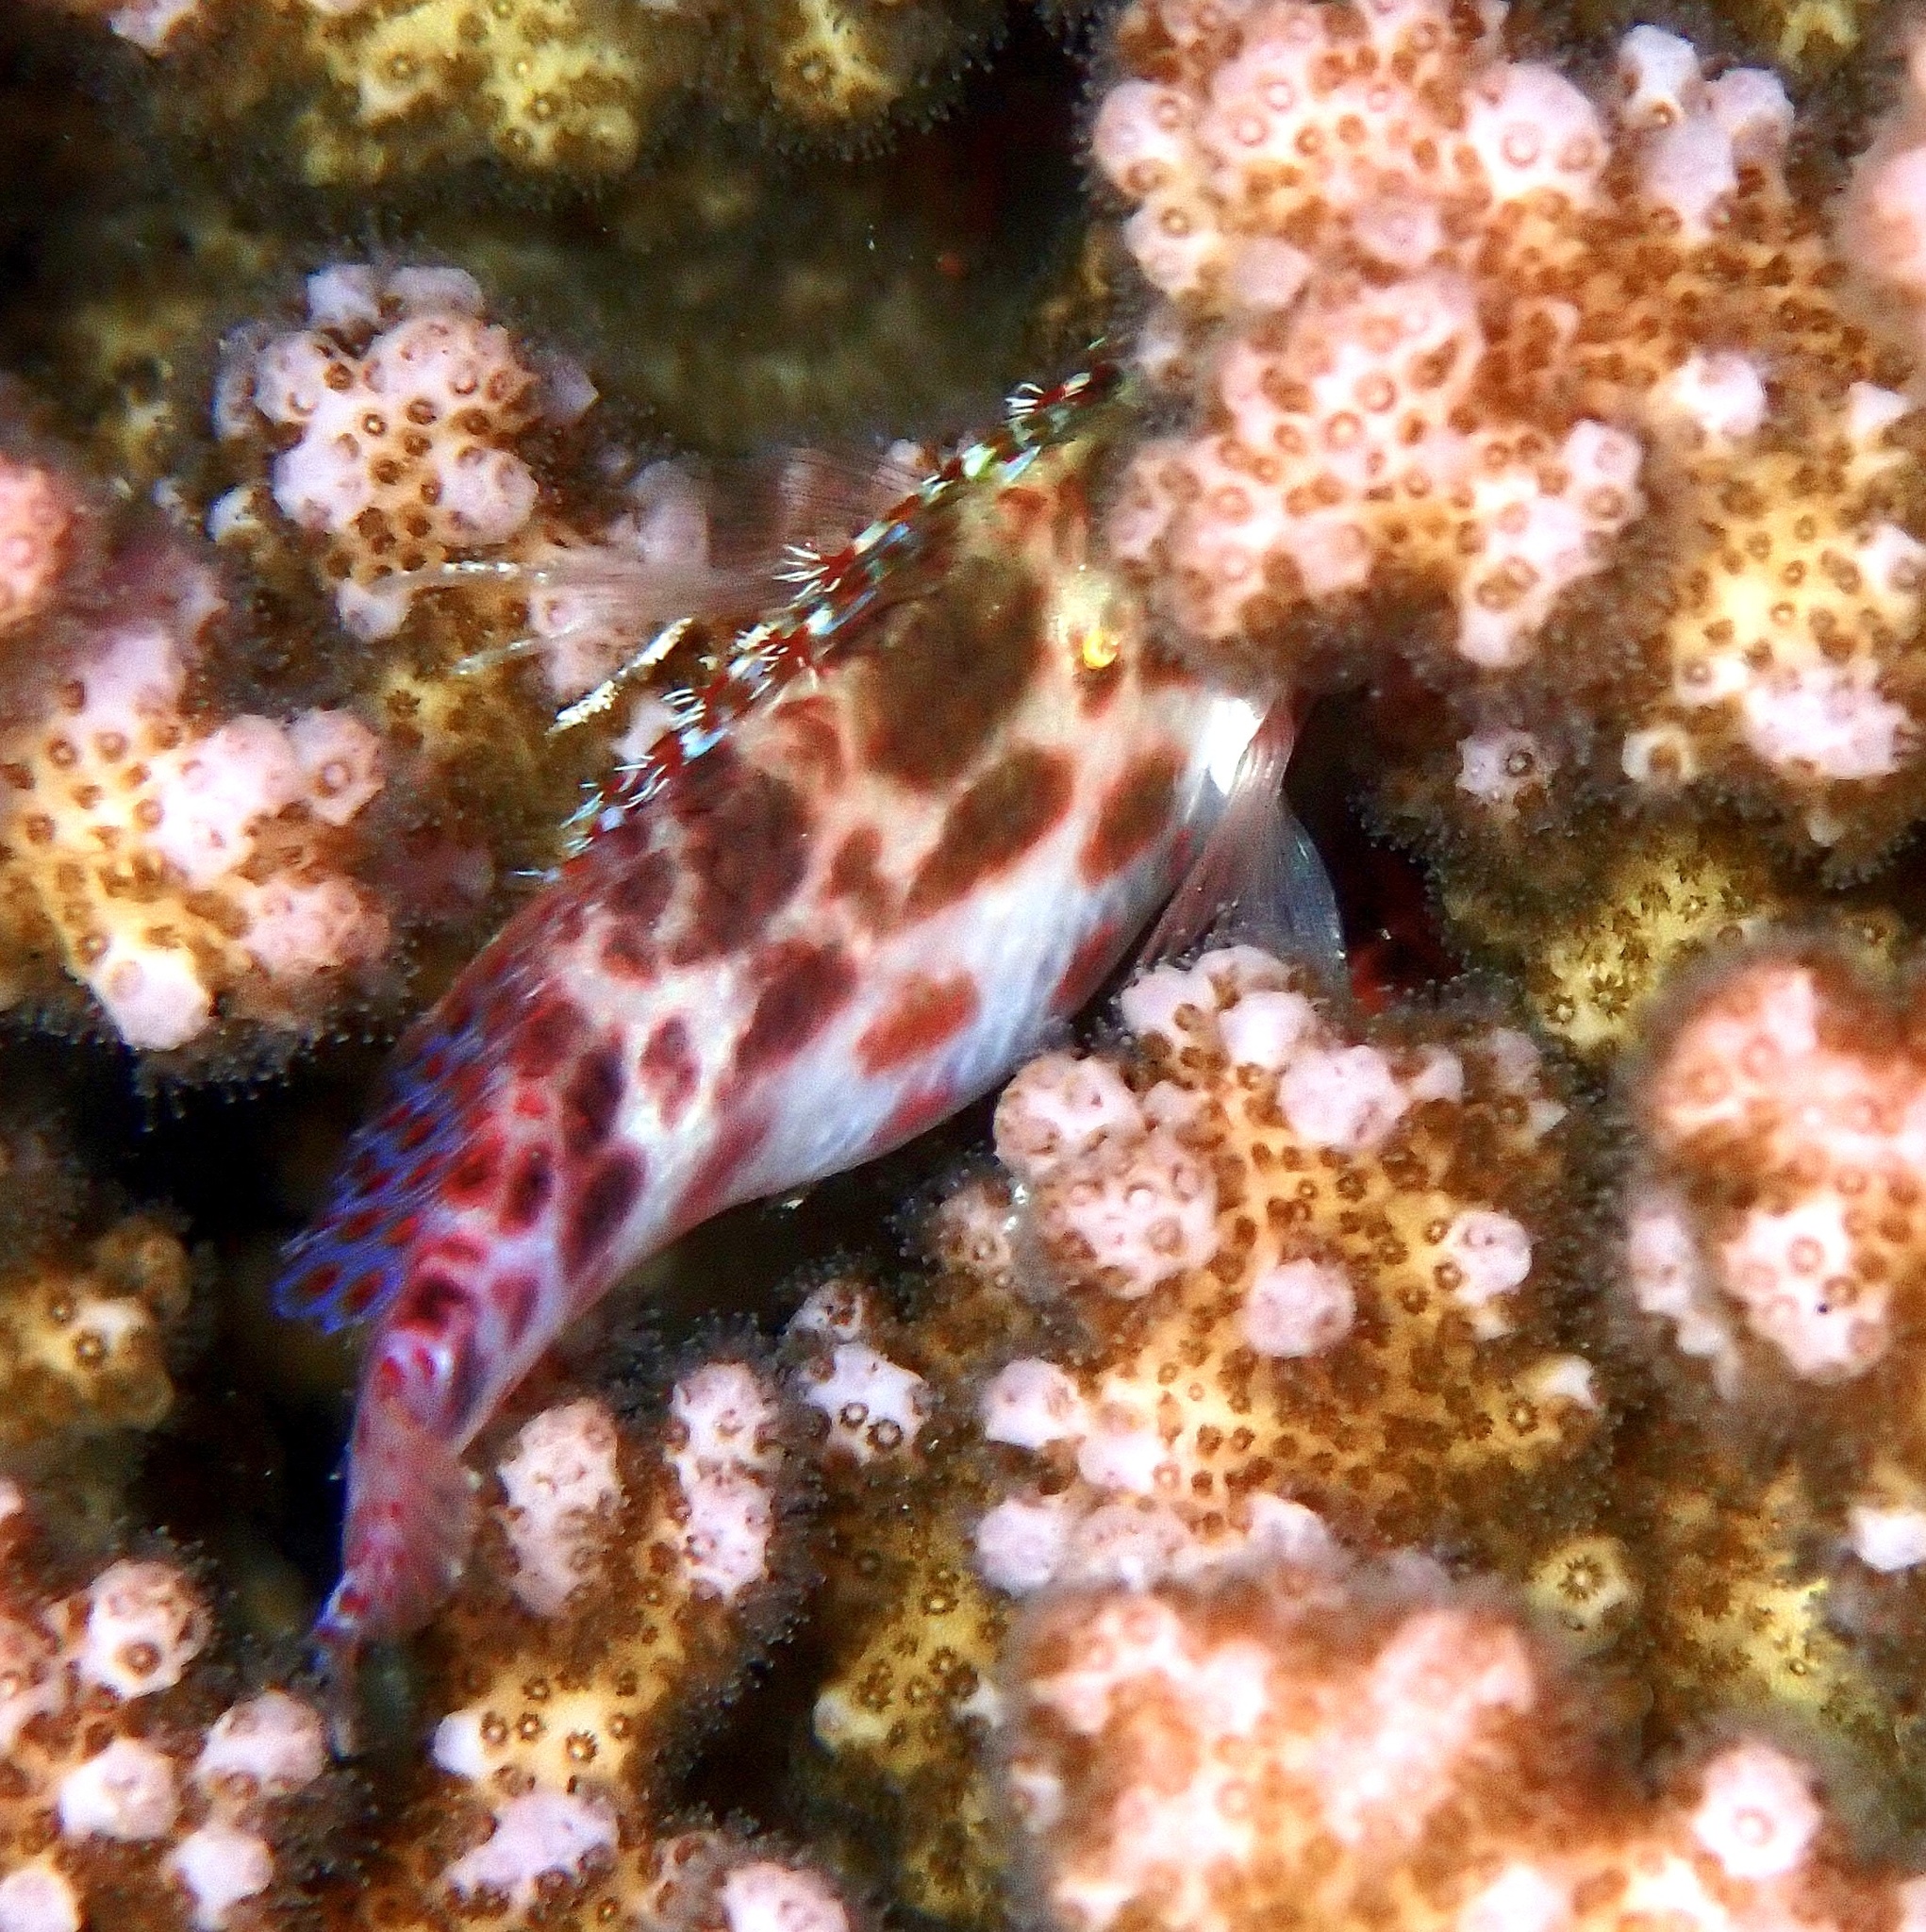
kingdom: Animalia
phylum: Chordata
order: Perciformes
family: Cirrhitidae
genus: Cirrhitichthys
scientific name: Cirrhitichthys oxycephalus
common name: Spotted hawkfish
